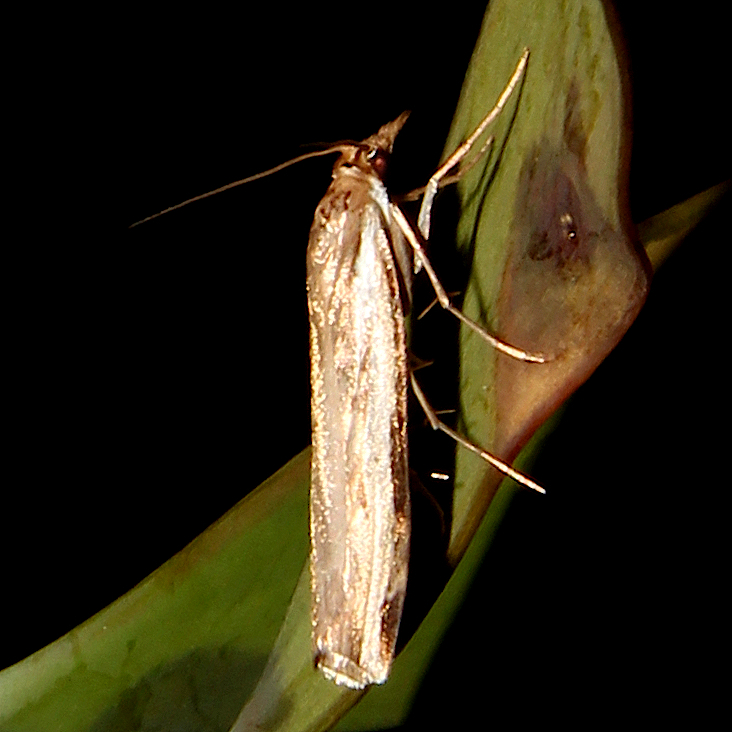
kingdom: Animalia
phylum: Arthropoda
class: Insecta
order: Lepidoptera
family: Crambidae
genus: Orocrambus
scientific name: Orocrambus flexuosellus
